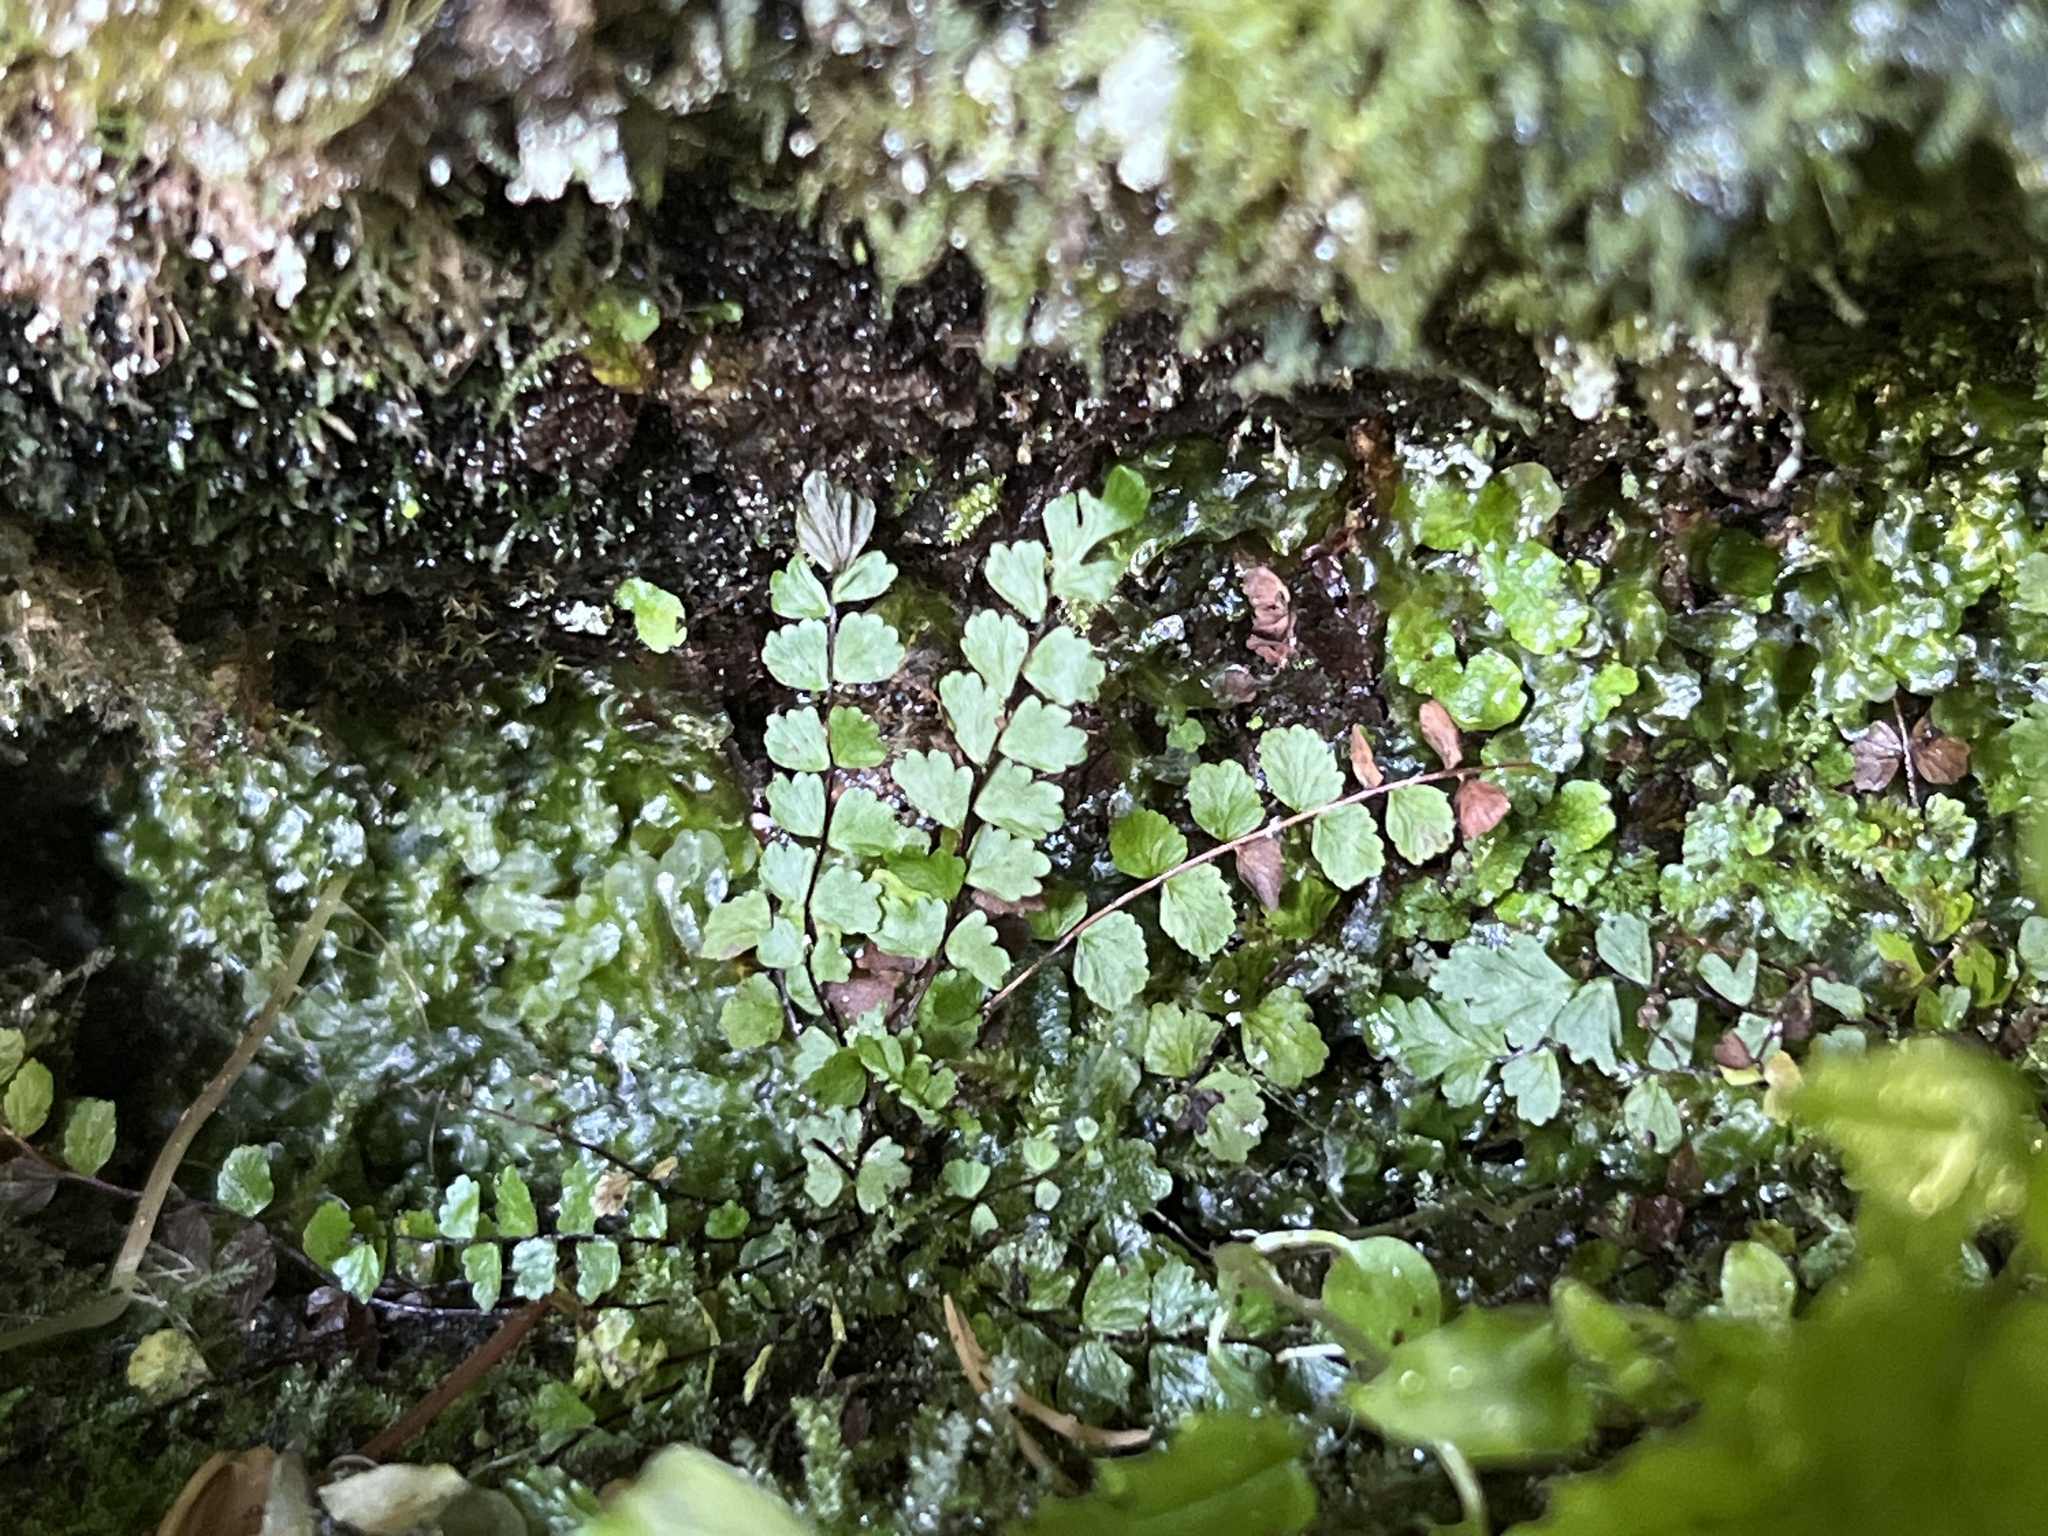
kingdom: Plantae
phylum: Tracheophyta
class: Polypodiopsida
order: Polypodiales
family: Aspleniaceae
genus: Asplenium
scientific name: Asplenium trichomanes
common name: Maidenhair spleenwort
